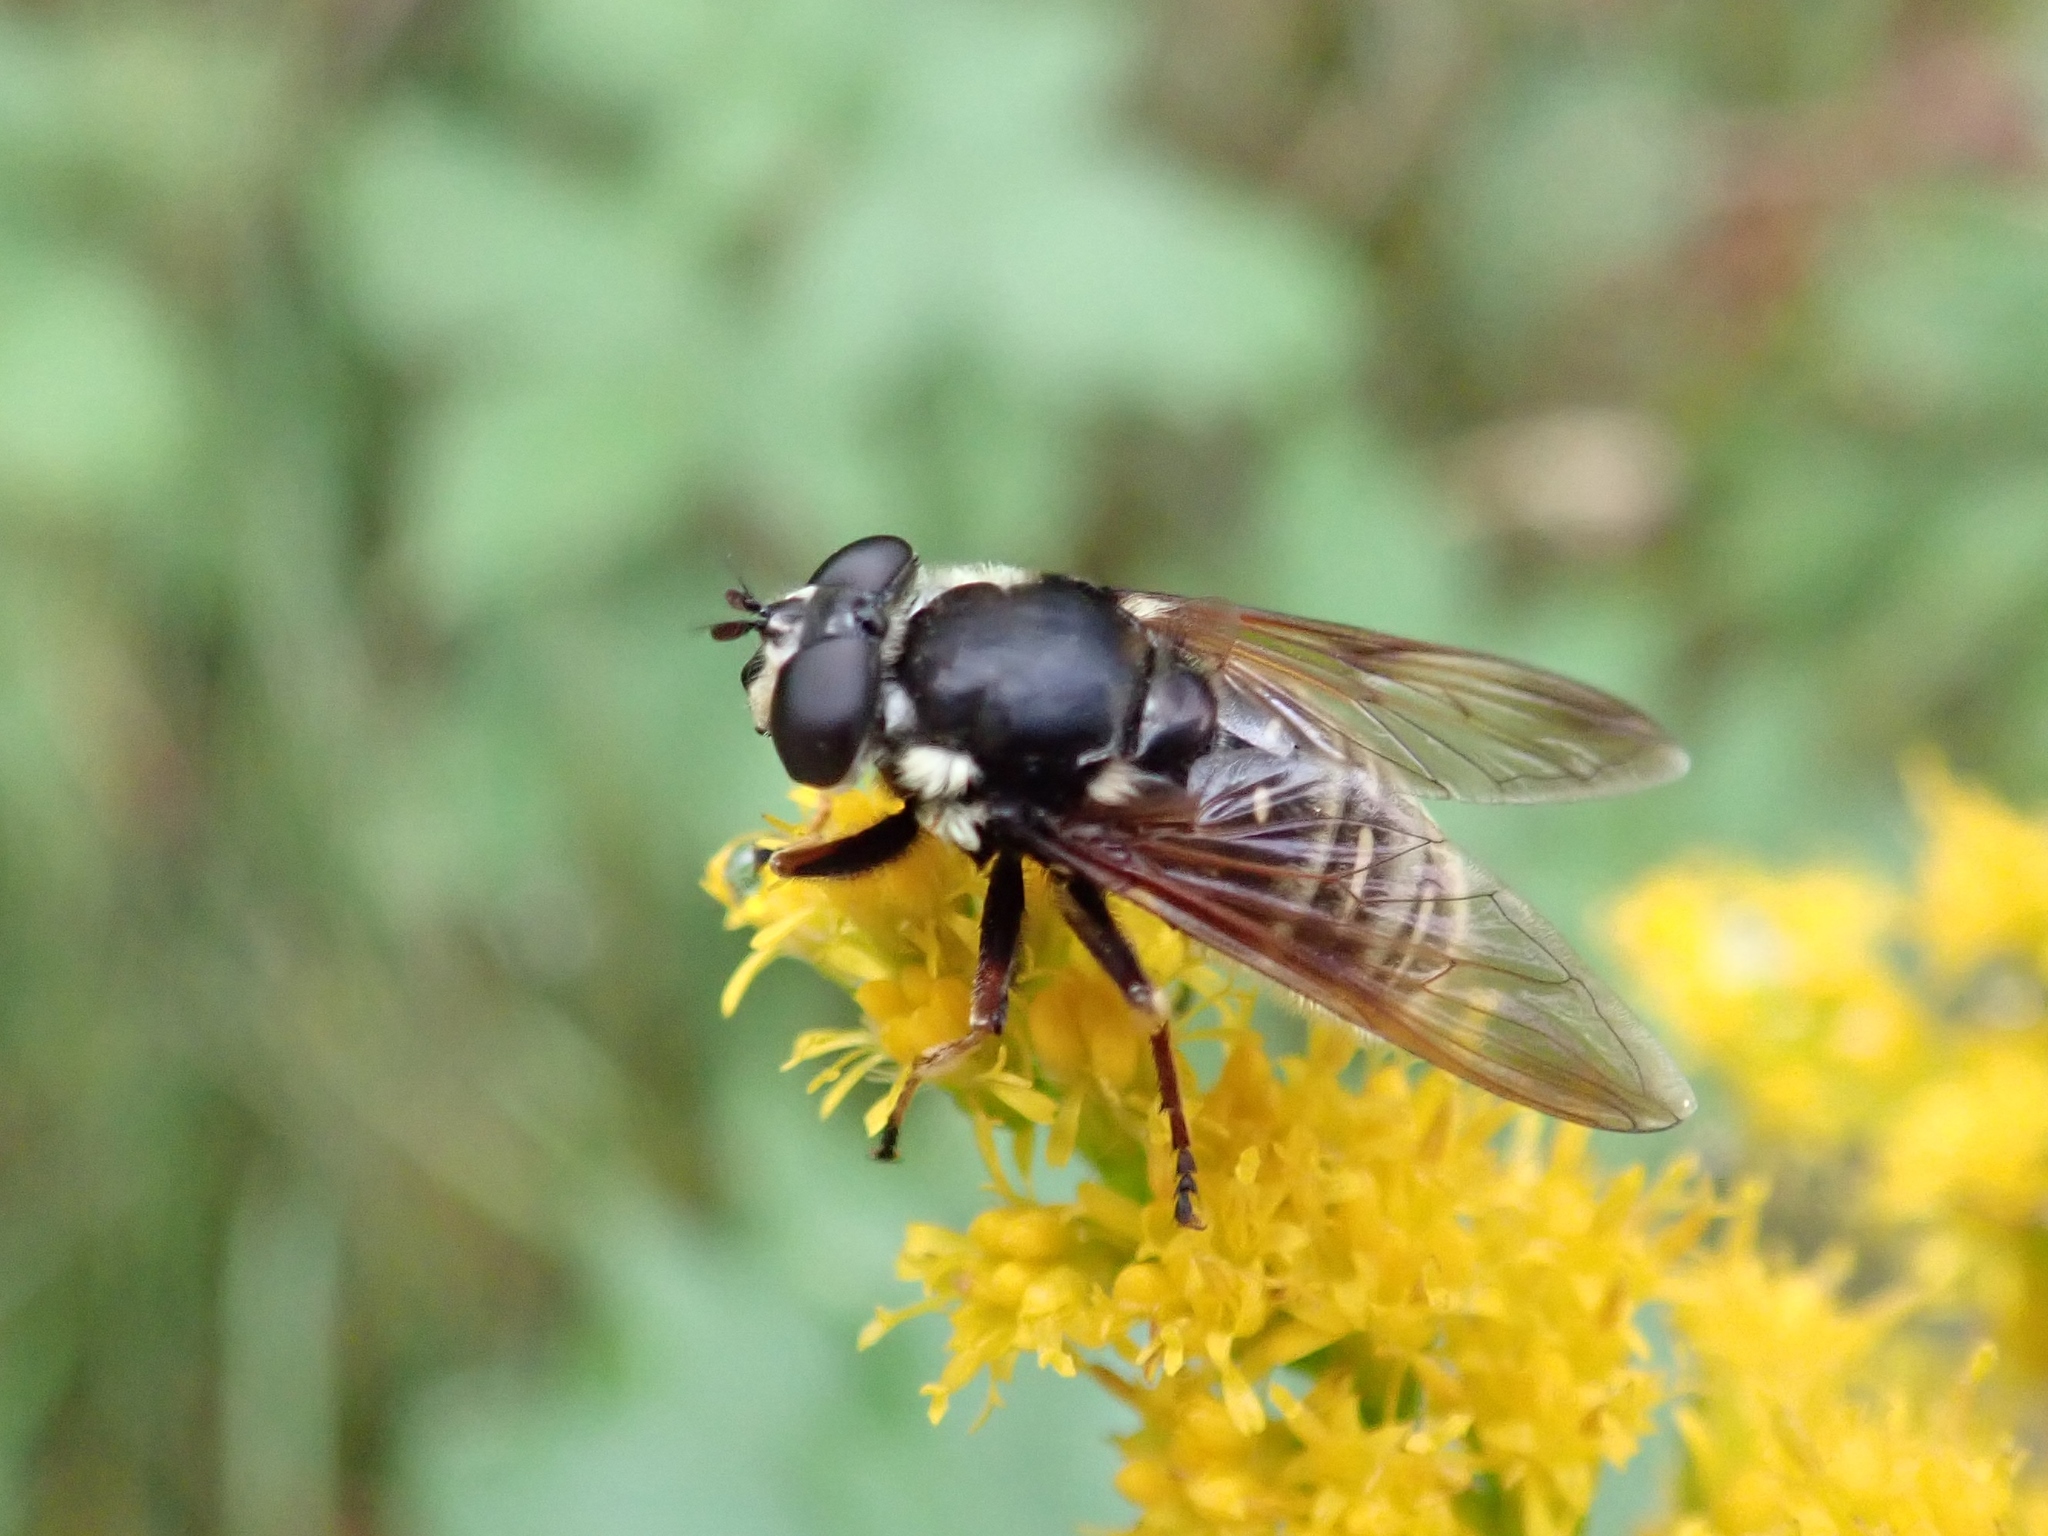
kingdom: Animalia
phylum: Arthropoda
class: Insecta
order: Diptera
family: Syrphidae
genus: Sericomyia
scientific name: Sericomyia militaris
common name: Narrow-banded pond fly
